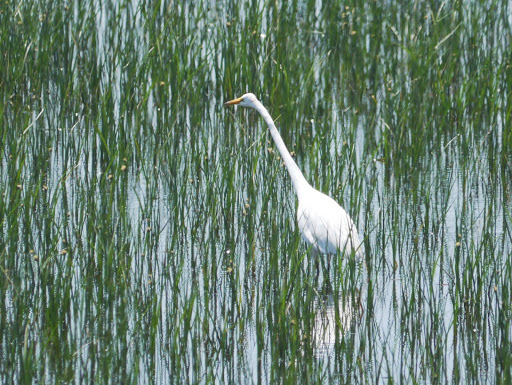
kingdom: Animalia
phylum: Chordata
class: Aves
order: Pelecaniformes
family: Ardeidae
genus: Ardea
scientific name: Ardea alba
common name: Great egret
